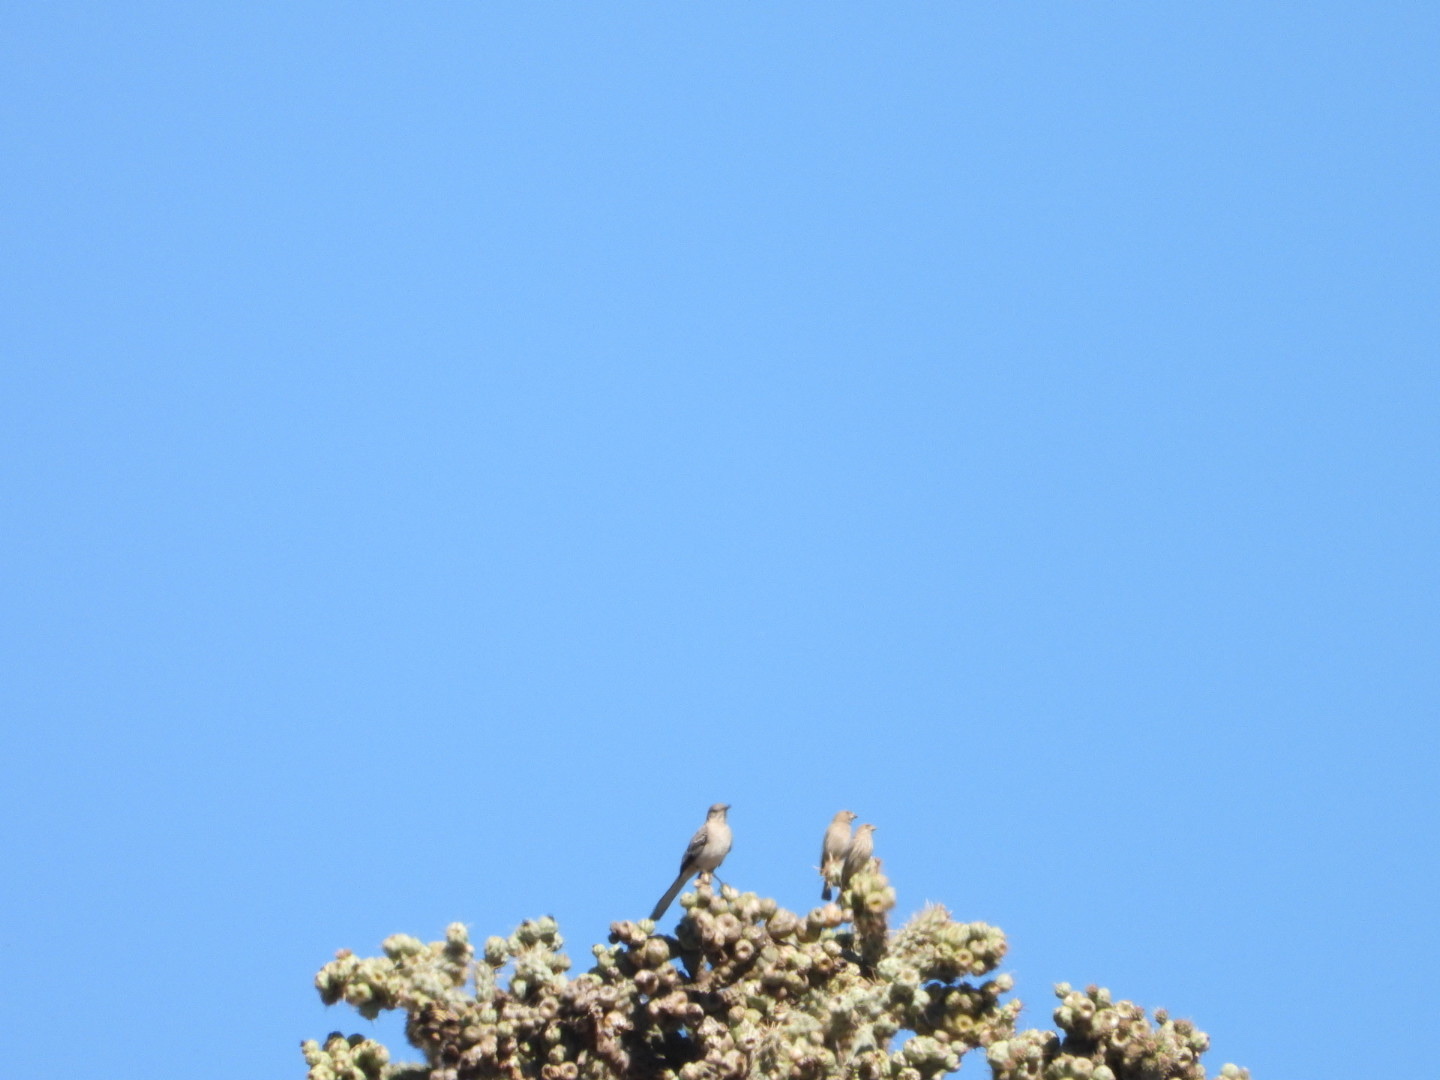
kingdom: Animalia
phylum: Chordata
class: Aves
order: Passeriformes
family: Mimidae
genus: Mimus
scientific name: Mimus polyglottos
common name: Northern mockingbird
